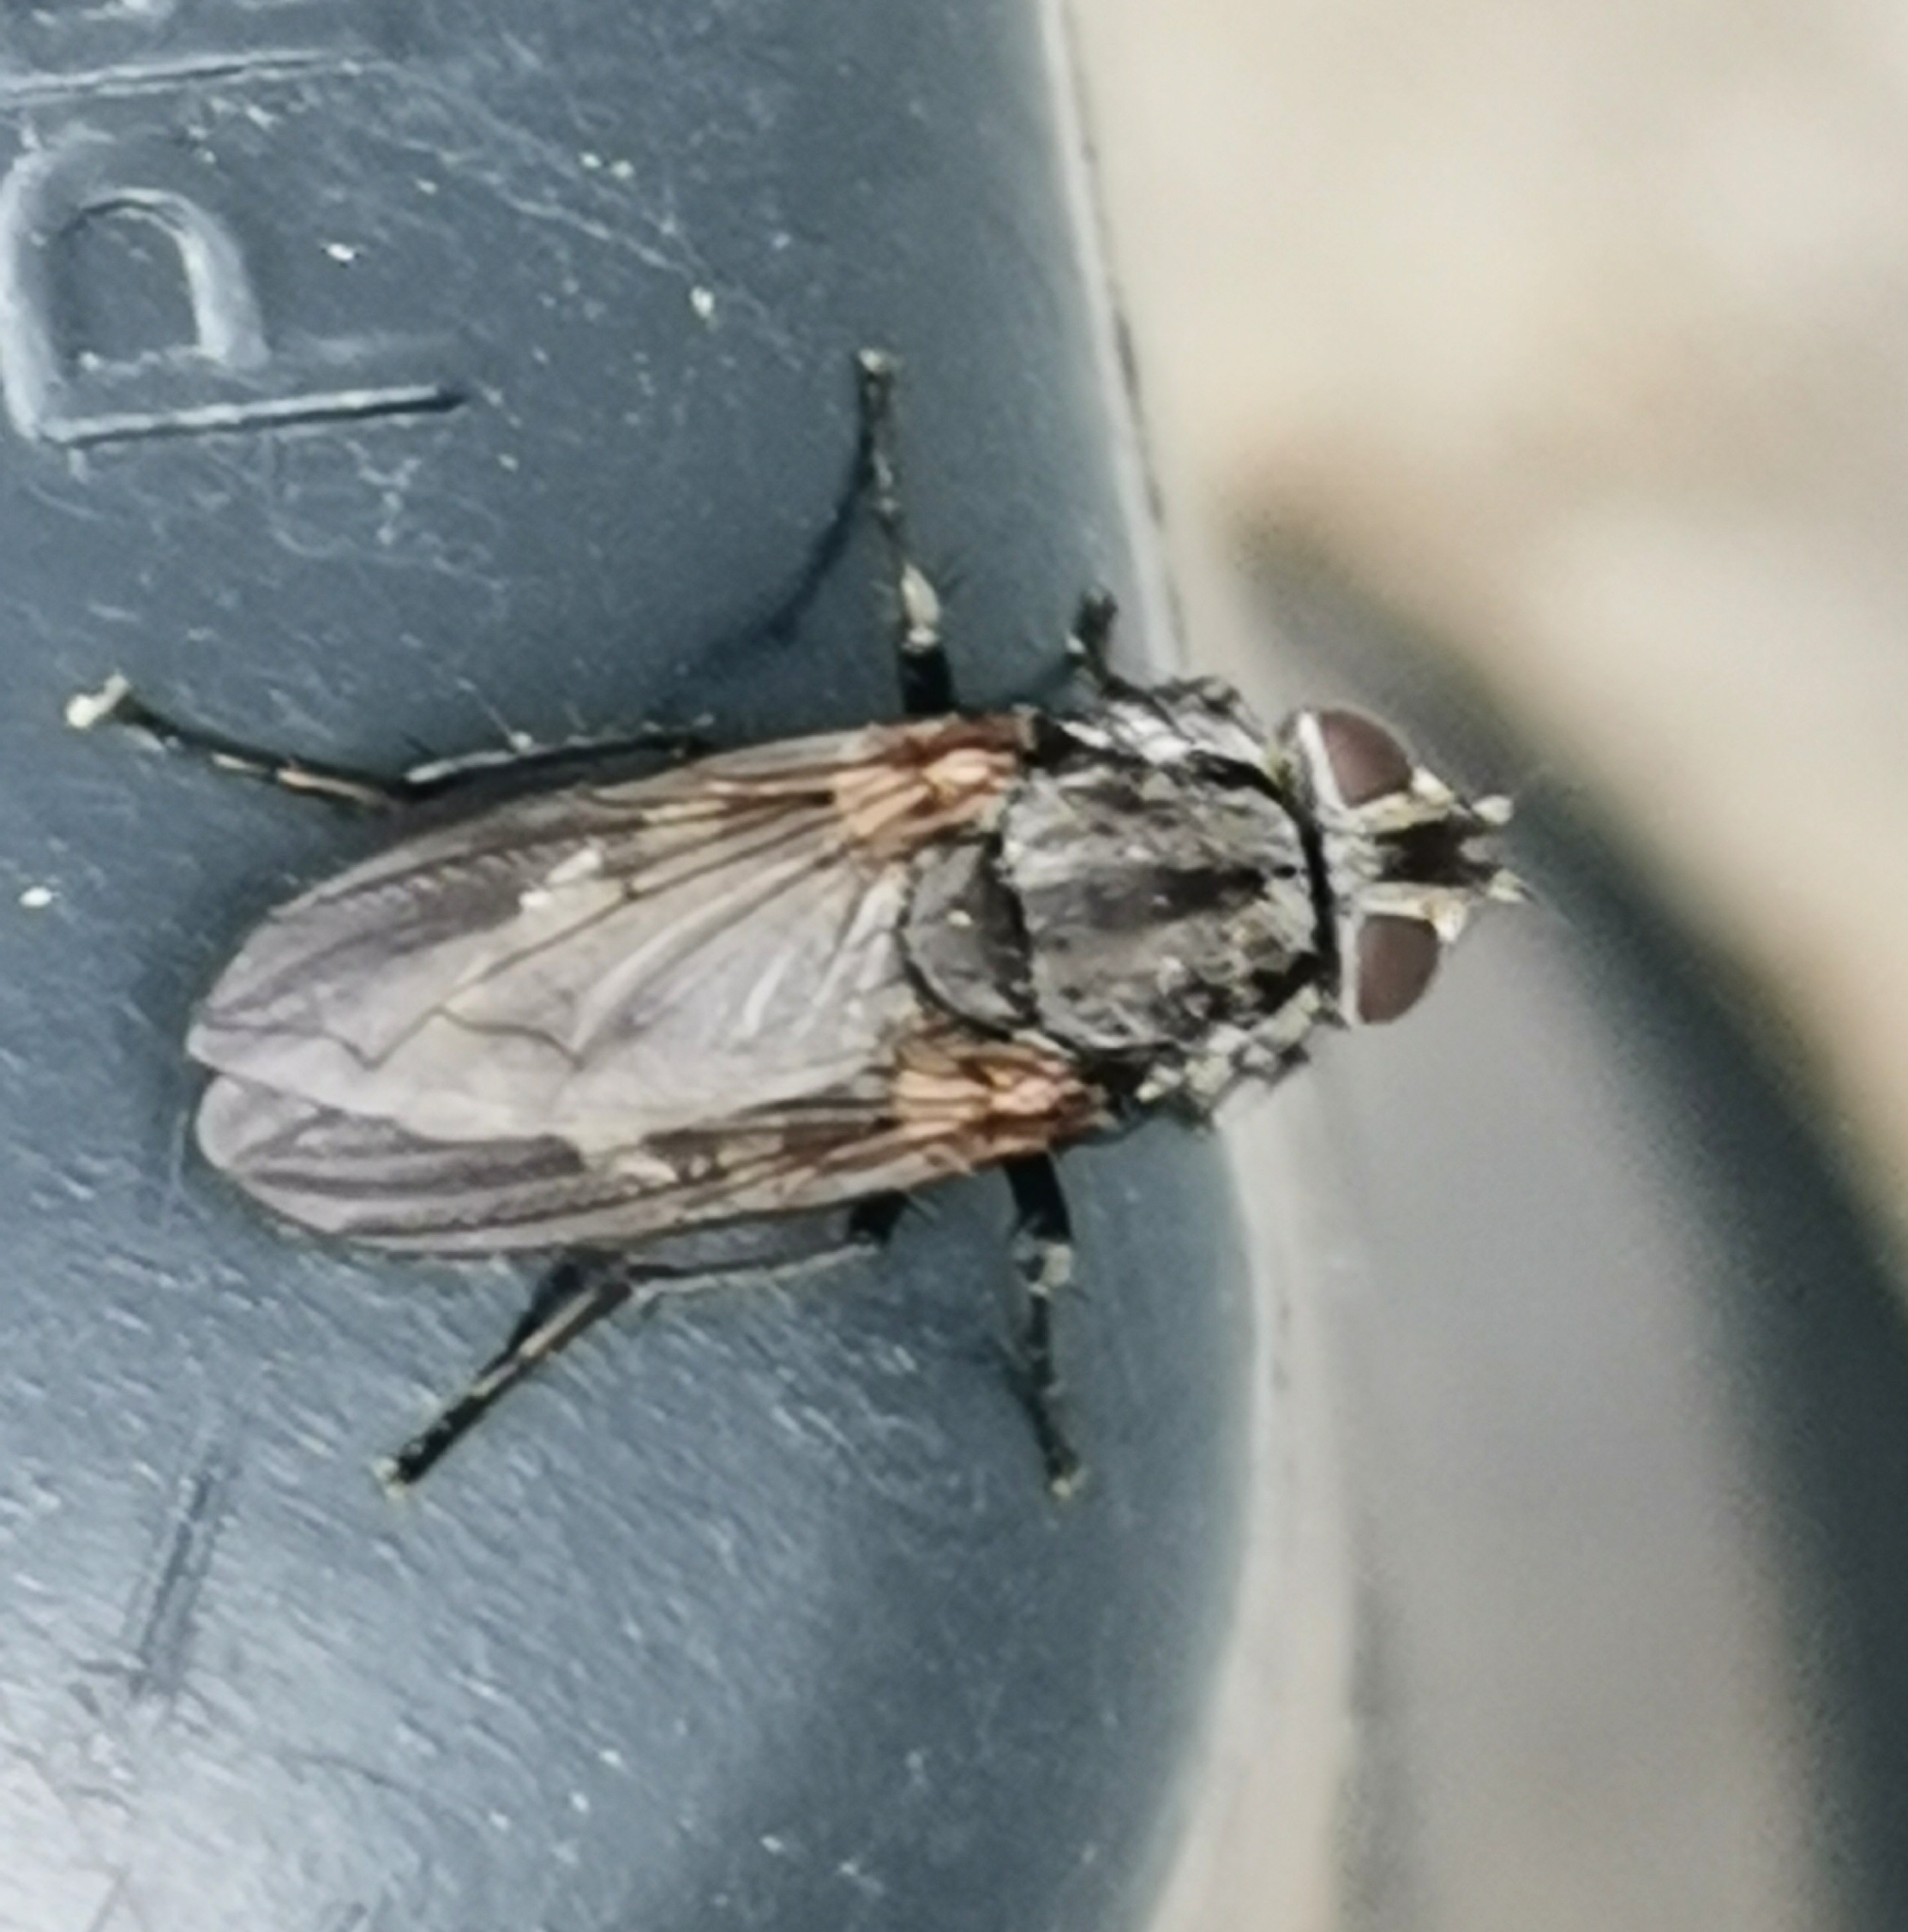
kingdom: Animalia
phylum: Arthropoda
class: Insecta
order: Diptera
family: Polleniidae
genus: Pollenia
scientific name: Pollenia vagabunda
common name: Vagabund cluster fly
